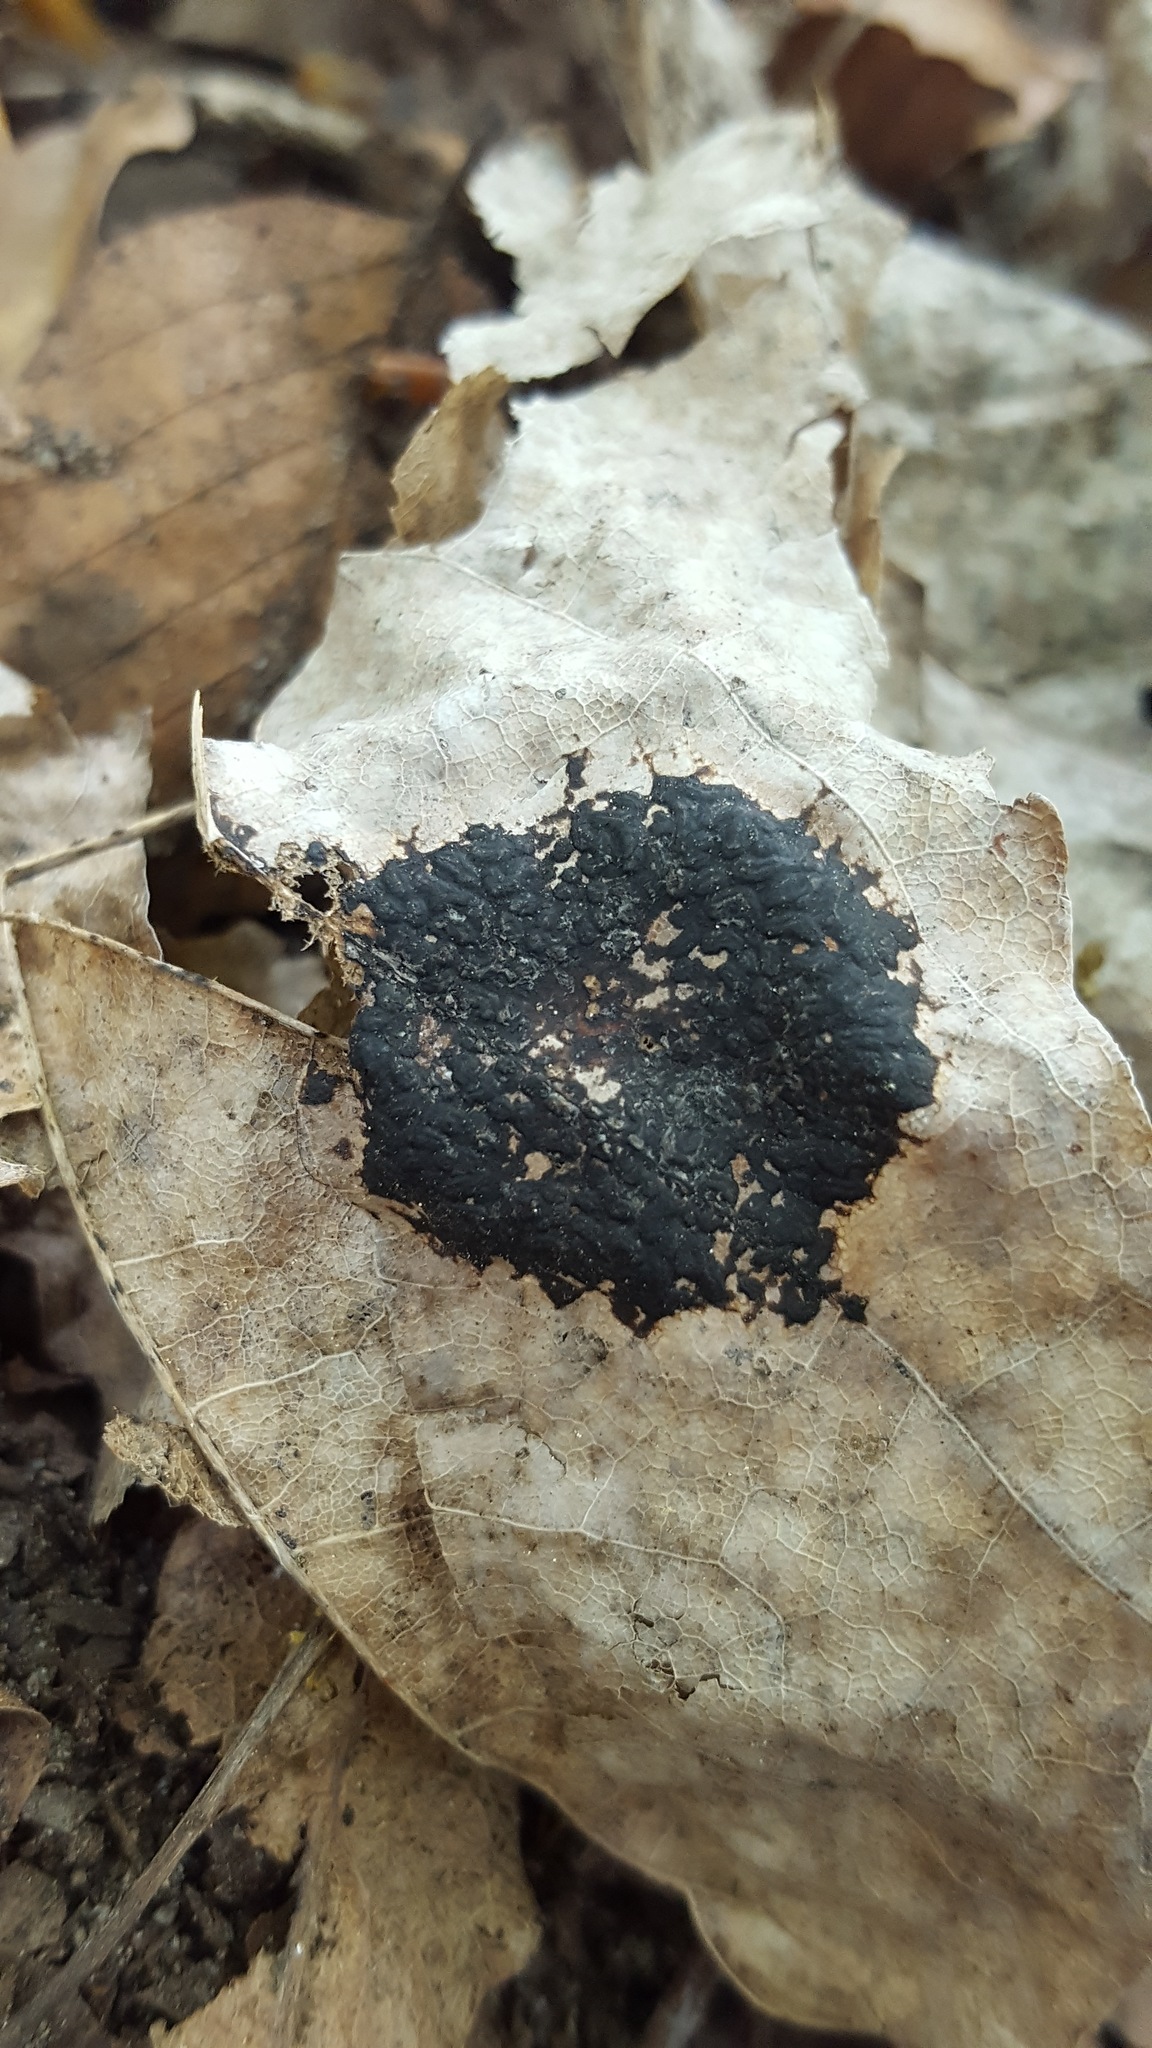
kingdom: Fungi
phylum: Ascomycota
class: Leotiomycetes
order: Rhytismatales
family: Rhytismataceae
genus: Rhytisma
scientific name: Rhytisma acerinum
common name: European tar spot
